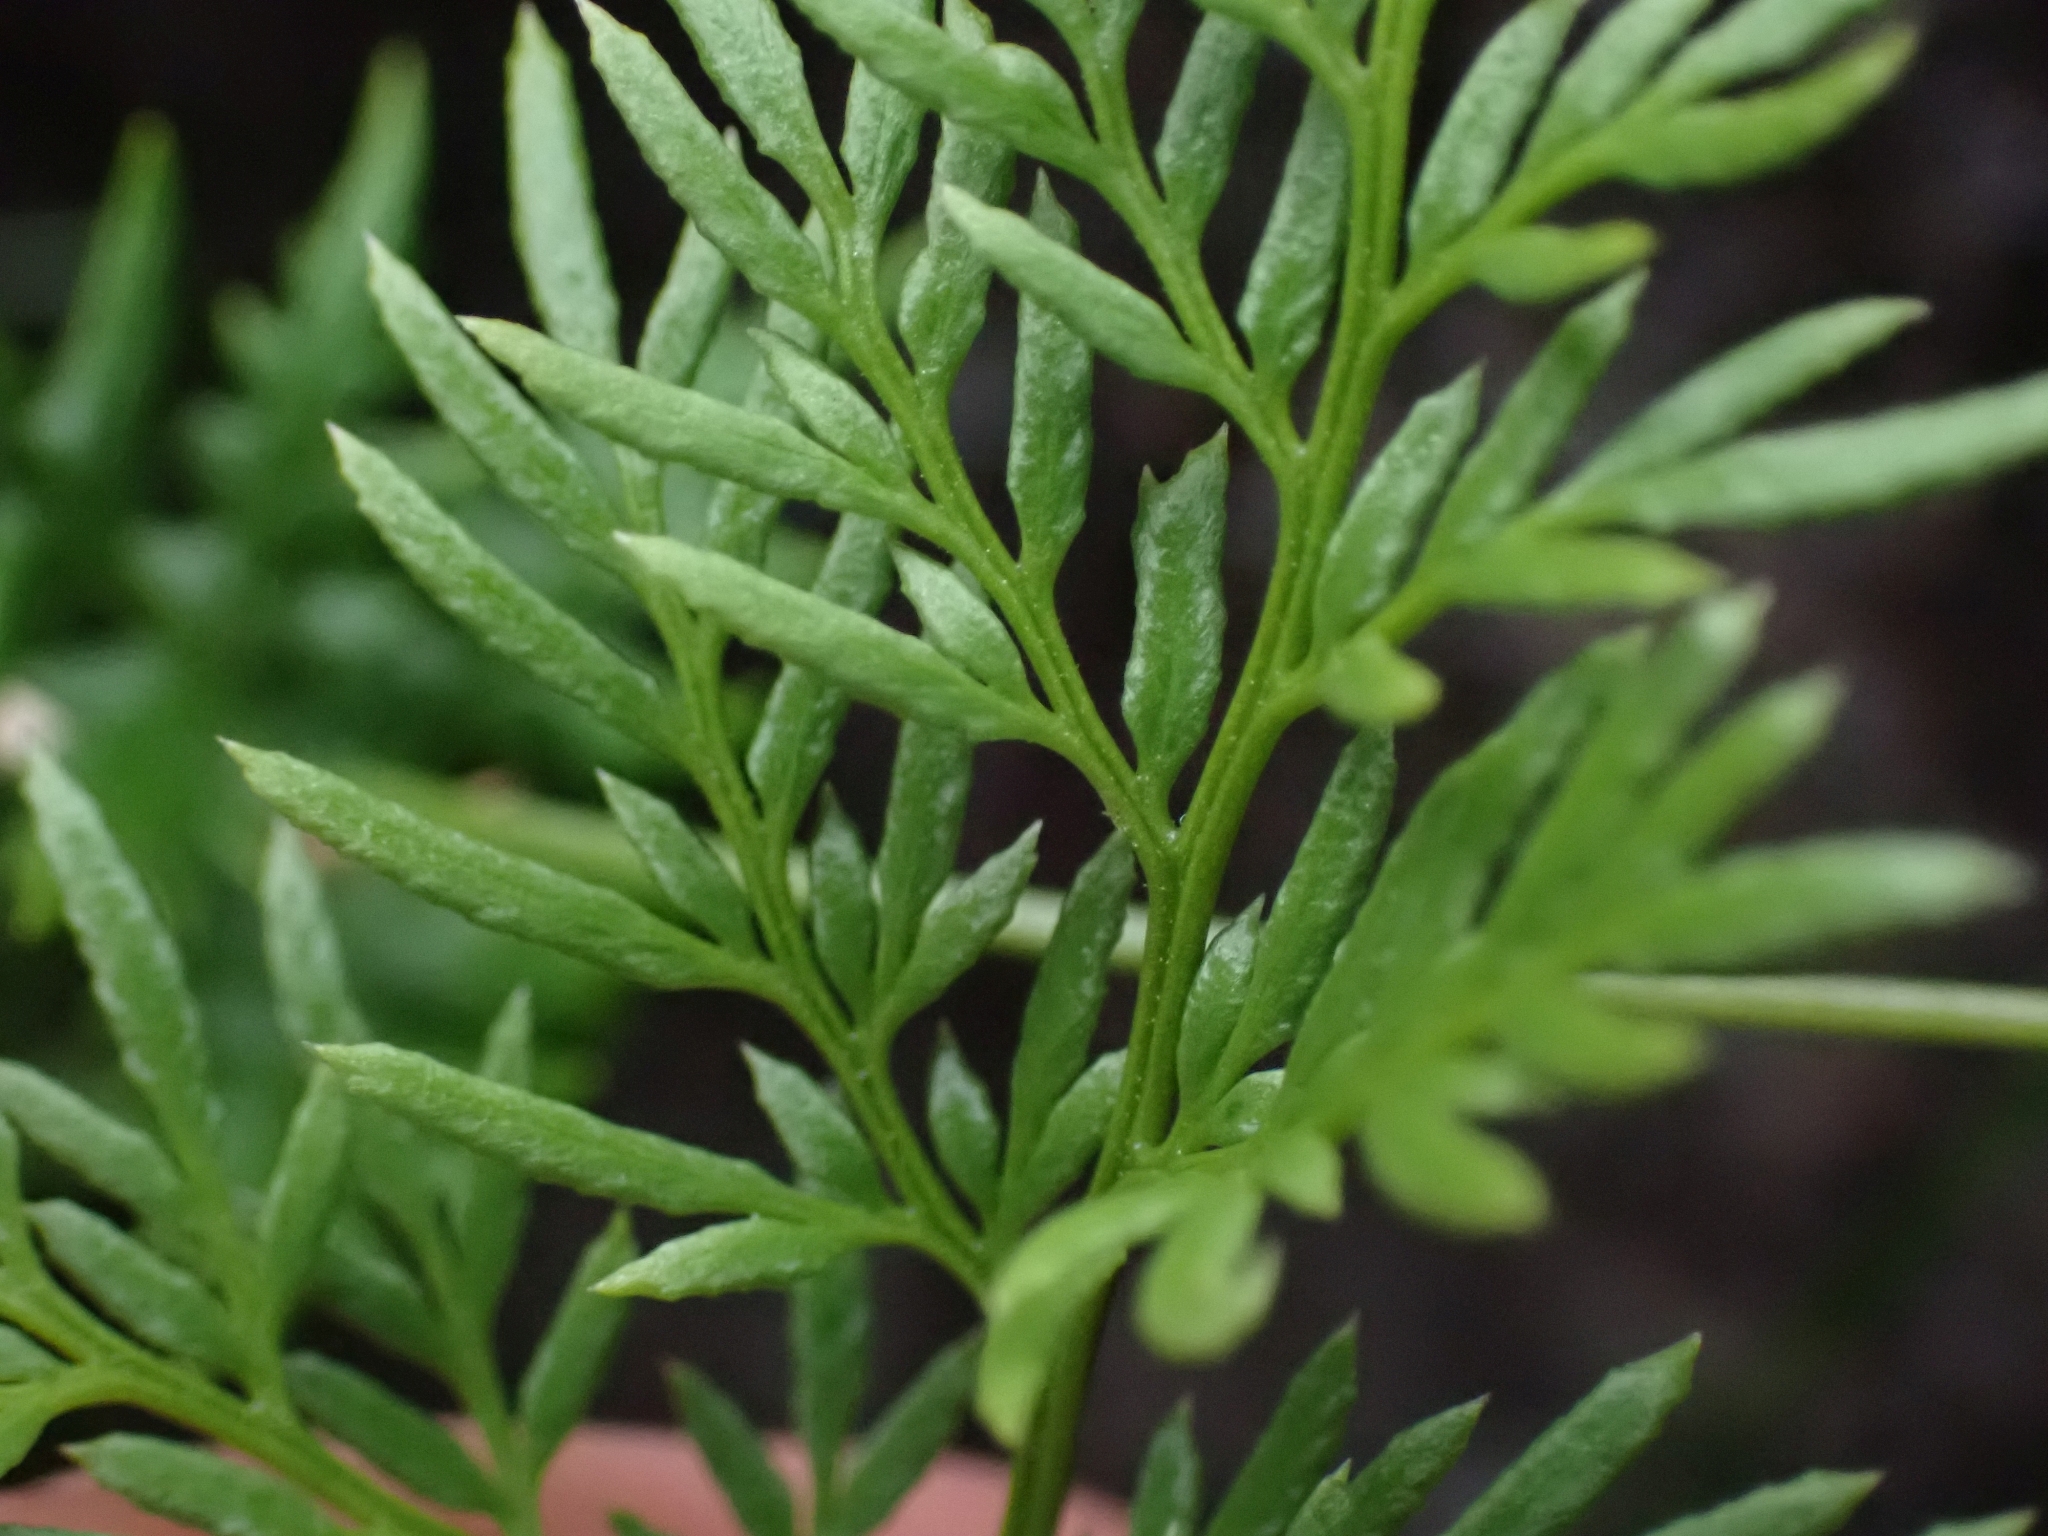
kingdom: Plantae
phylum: Tracheophyta
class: Polypodiopsida
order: Polypodiales
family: Pteridaceae
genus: Aspidotis
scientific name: Aspidotis densa
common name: Indian's dream
